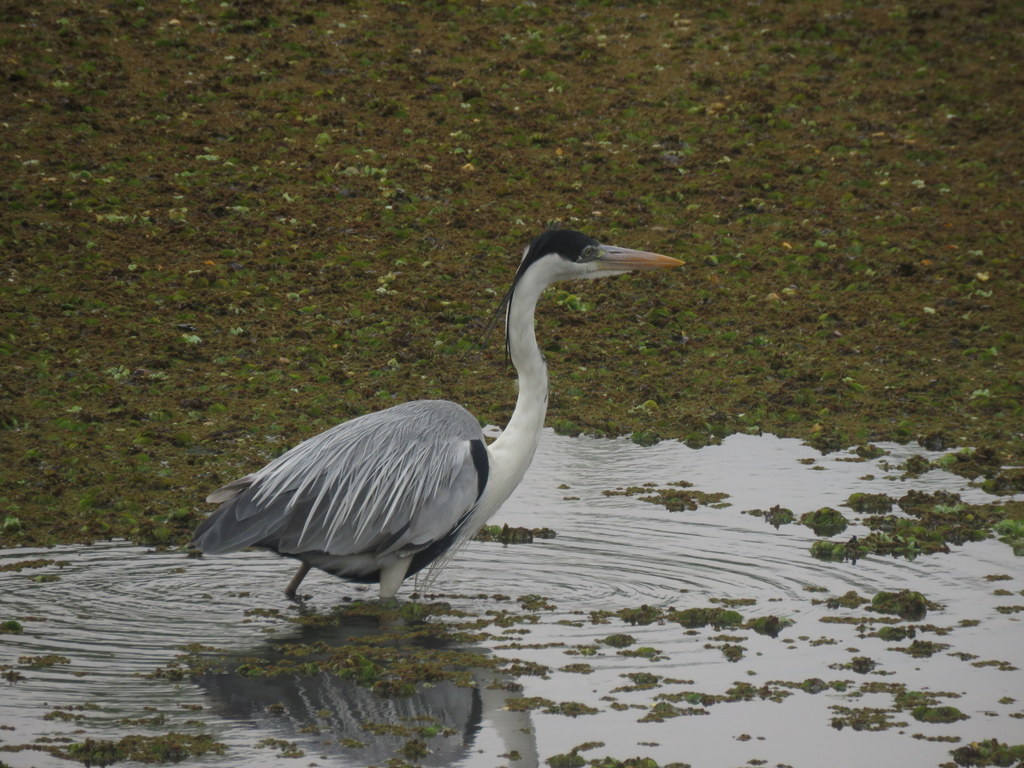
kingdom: Animalia
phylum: Chordata
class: Aves
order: Pelecaniformes
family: Ardeidae
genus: Ardea
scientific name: Ardea cocoi
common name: Cocoi heron
